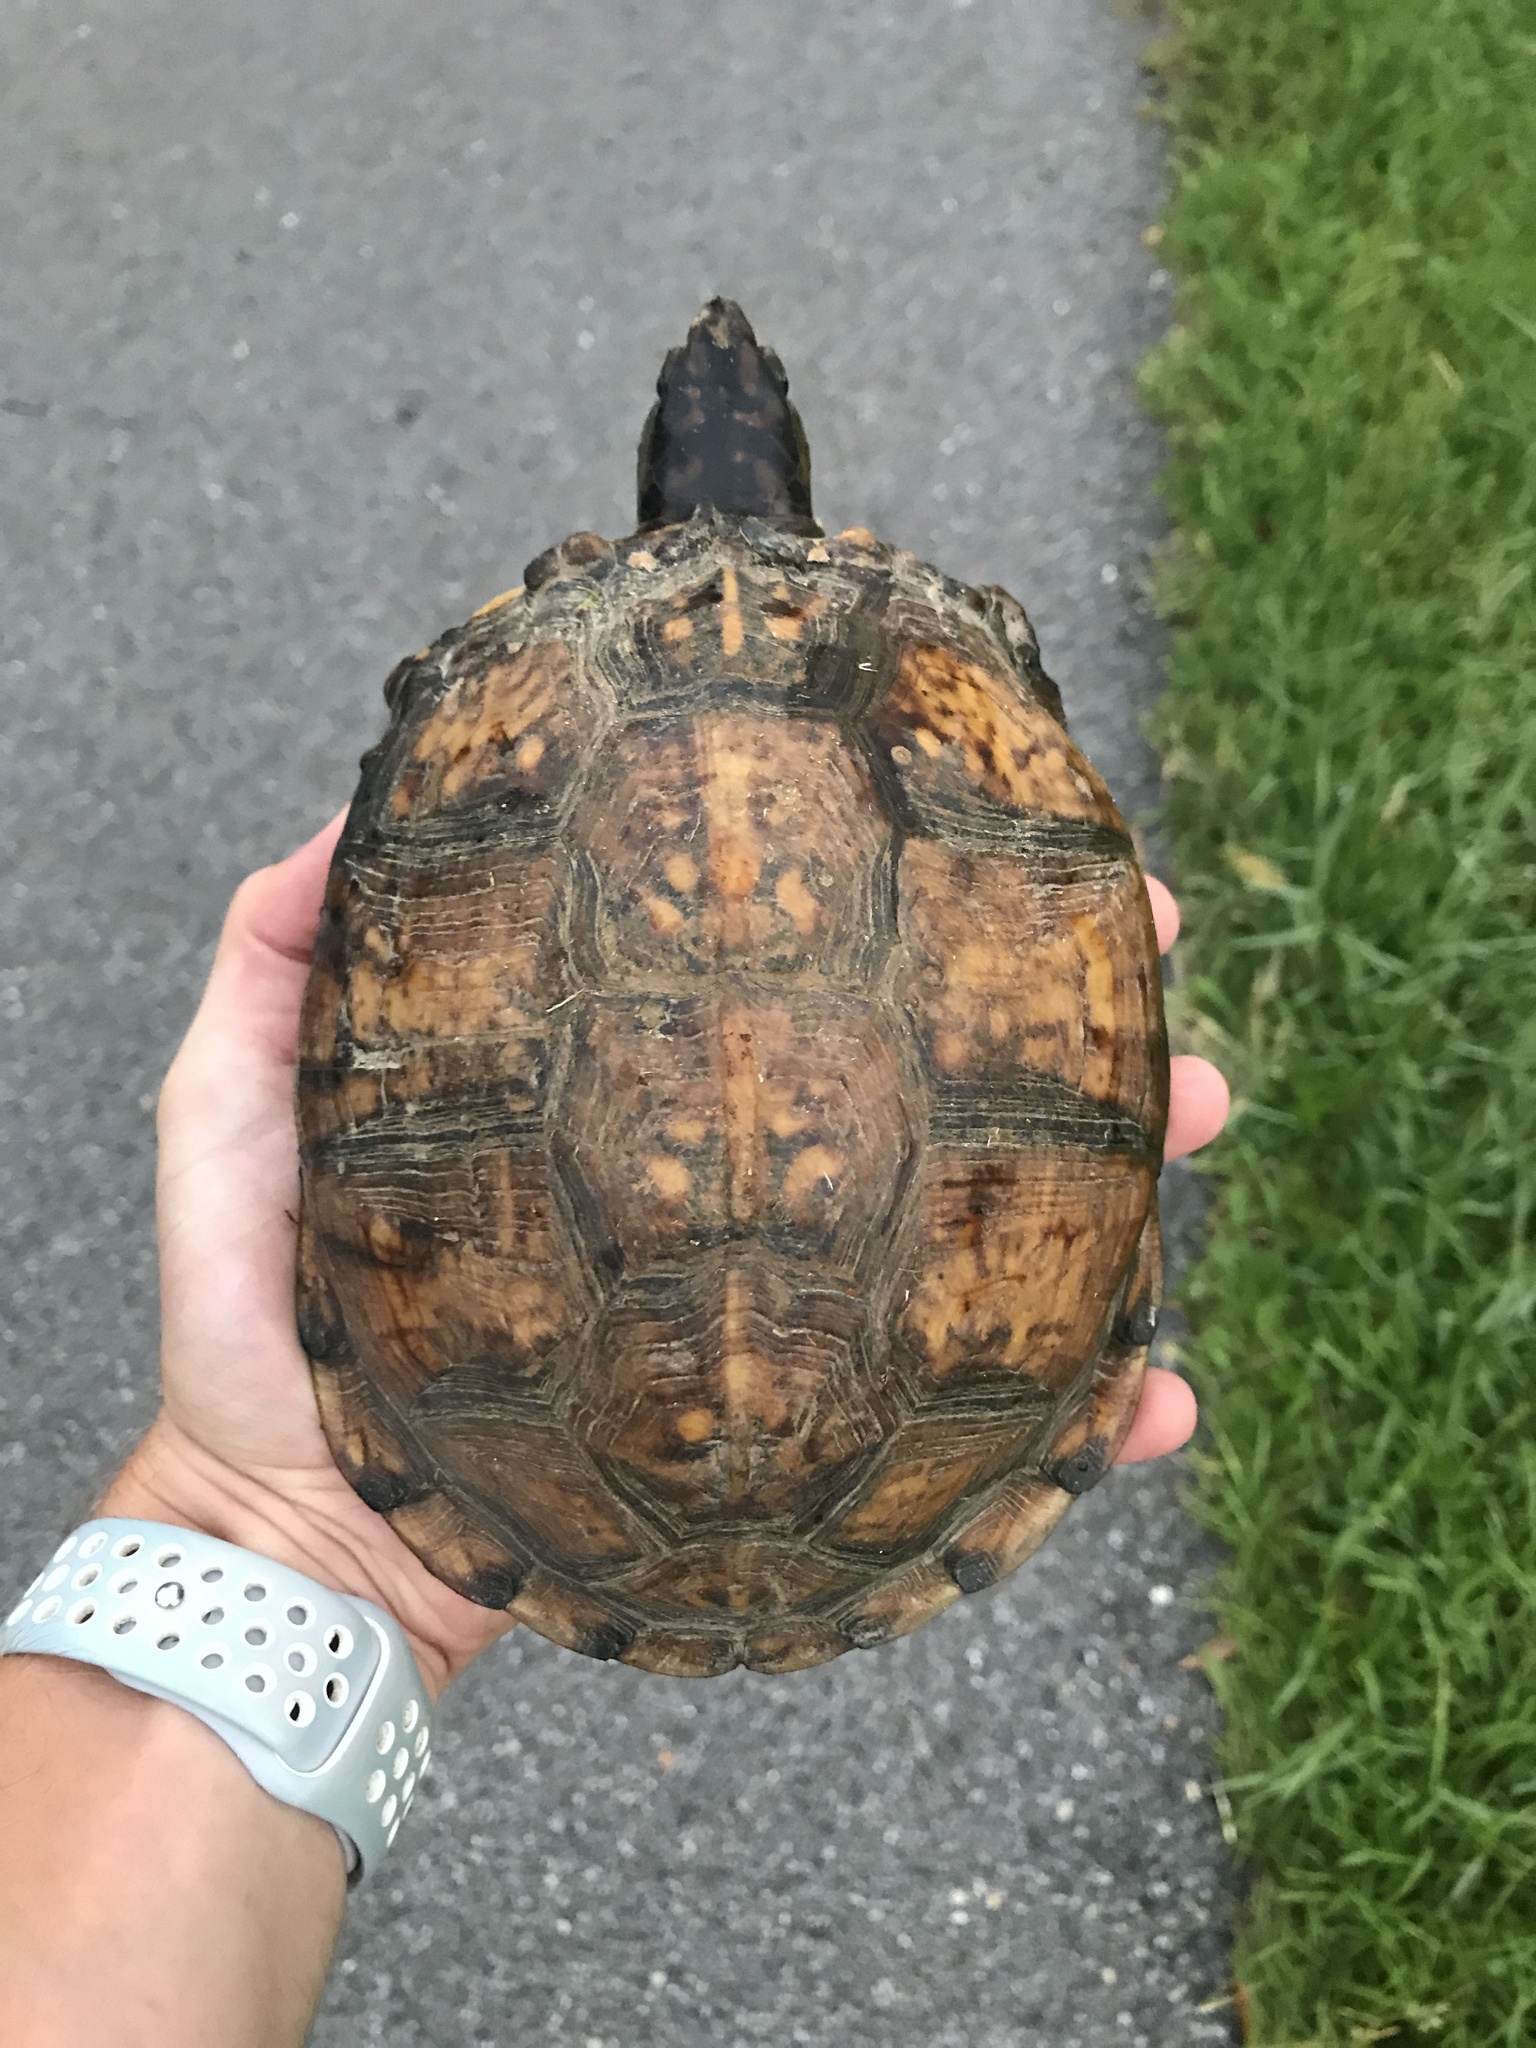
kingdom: Animalia
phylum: Chordata
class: Testudines
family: Emydidae
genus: Terrapene
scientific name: Terrapene carolina
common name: Common box turtle
